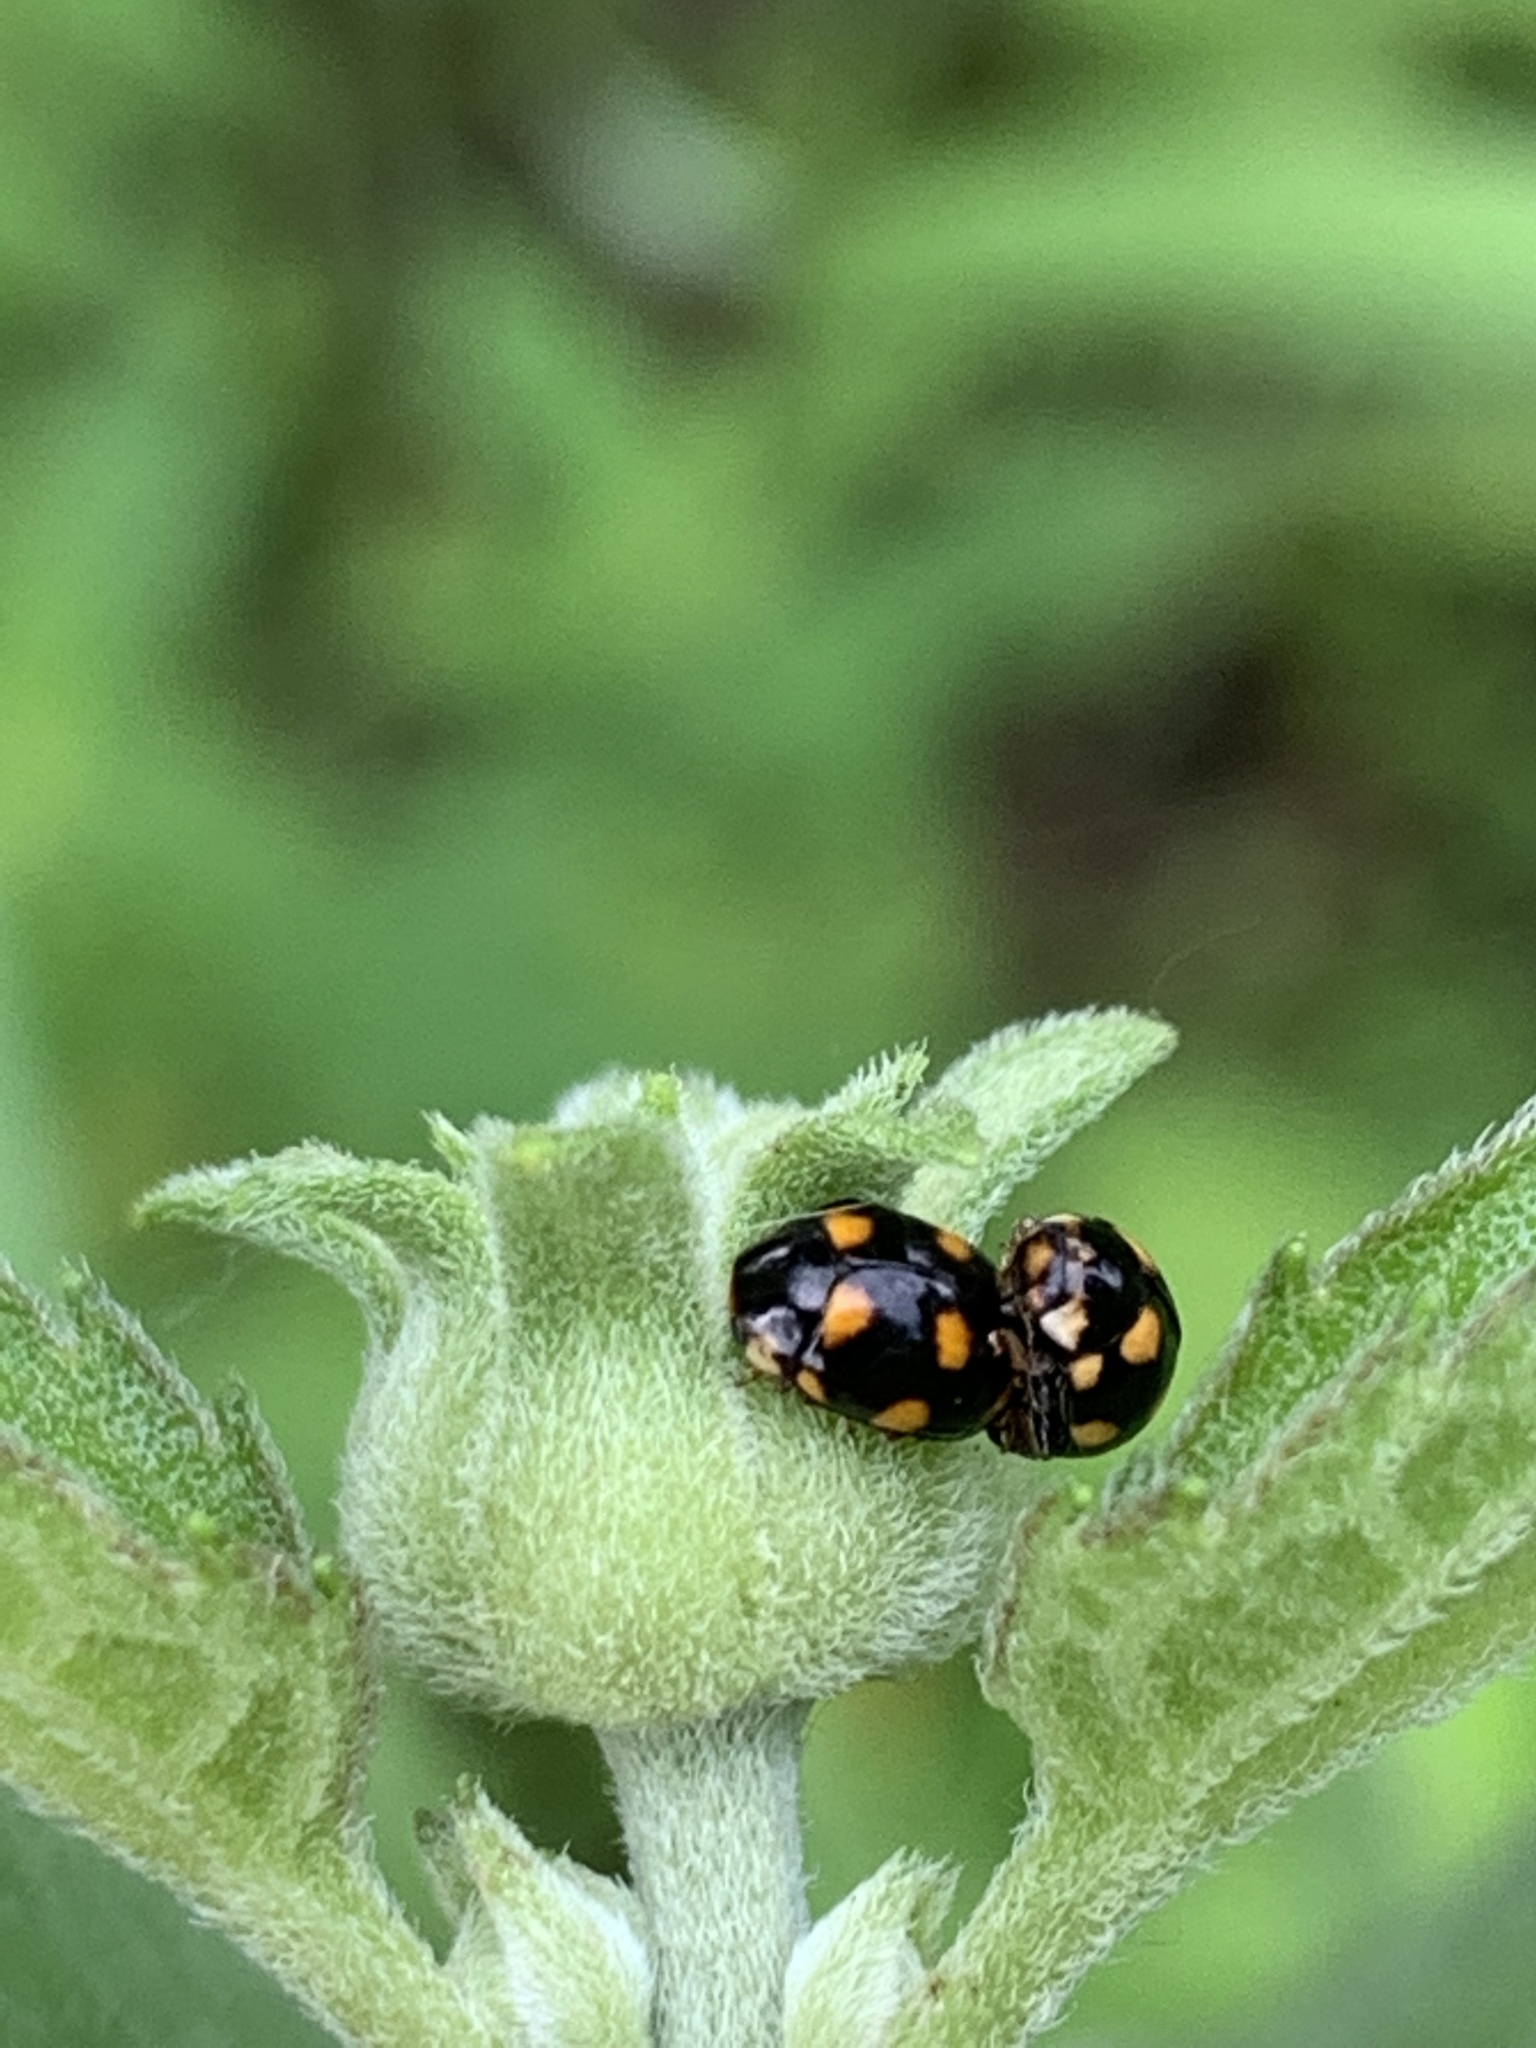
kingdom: Animalia
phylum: Arthropoda
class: Insecta
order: Coleoptera
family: Coccinellidae
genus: Brachiacantha
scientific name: Brachiacantha ursina
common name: Ursine spurleg lady beetle
